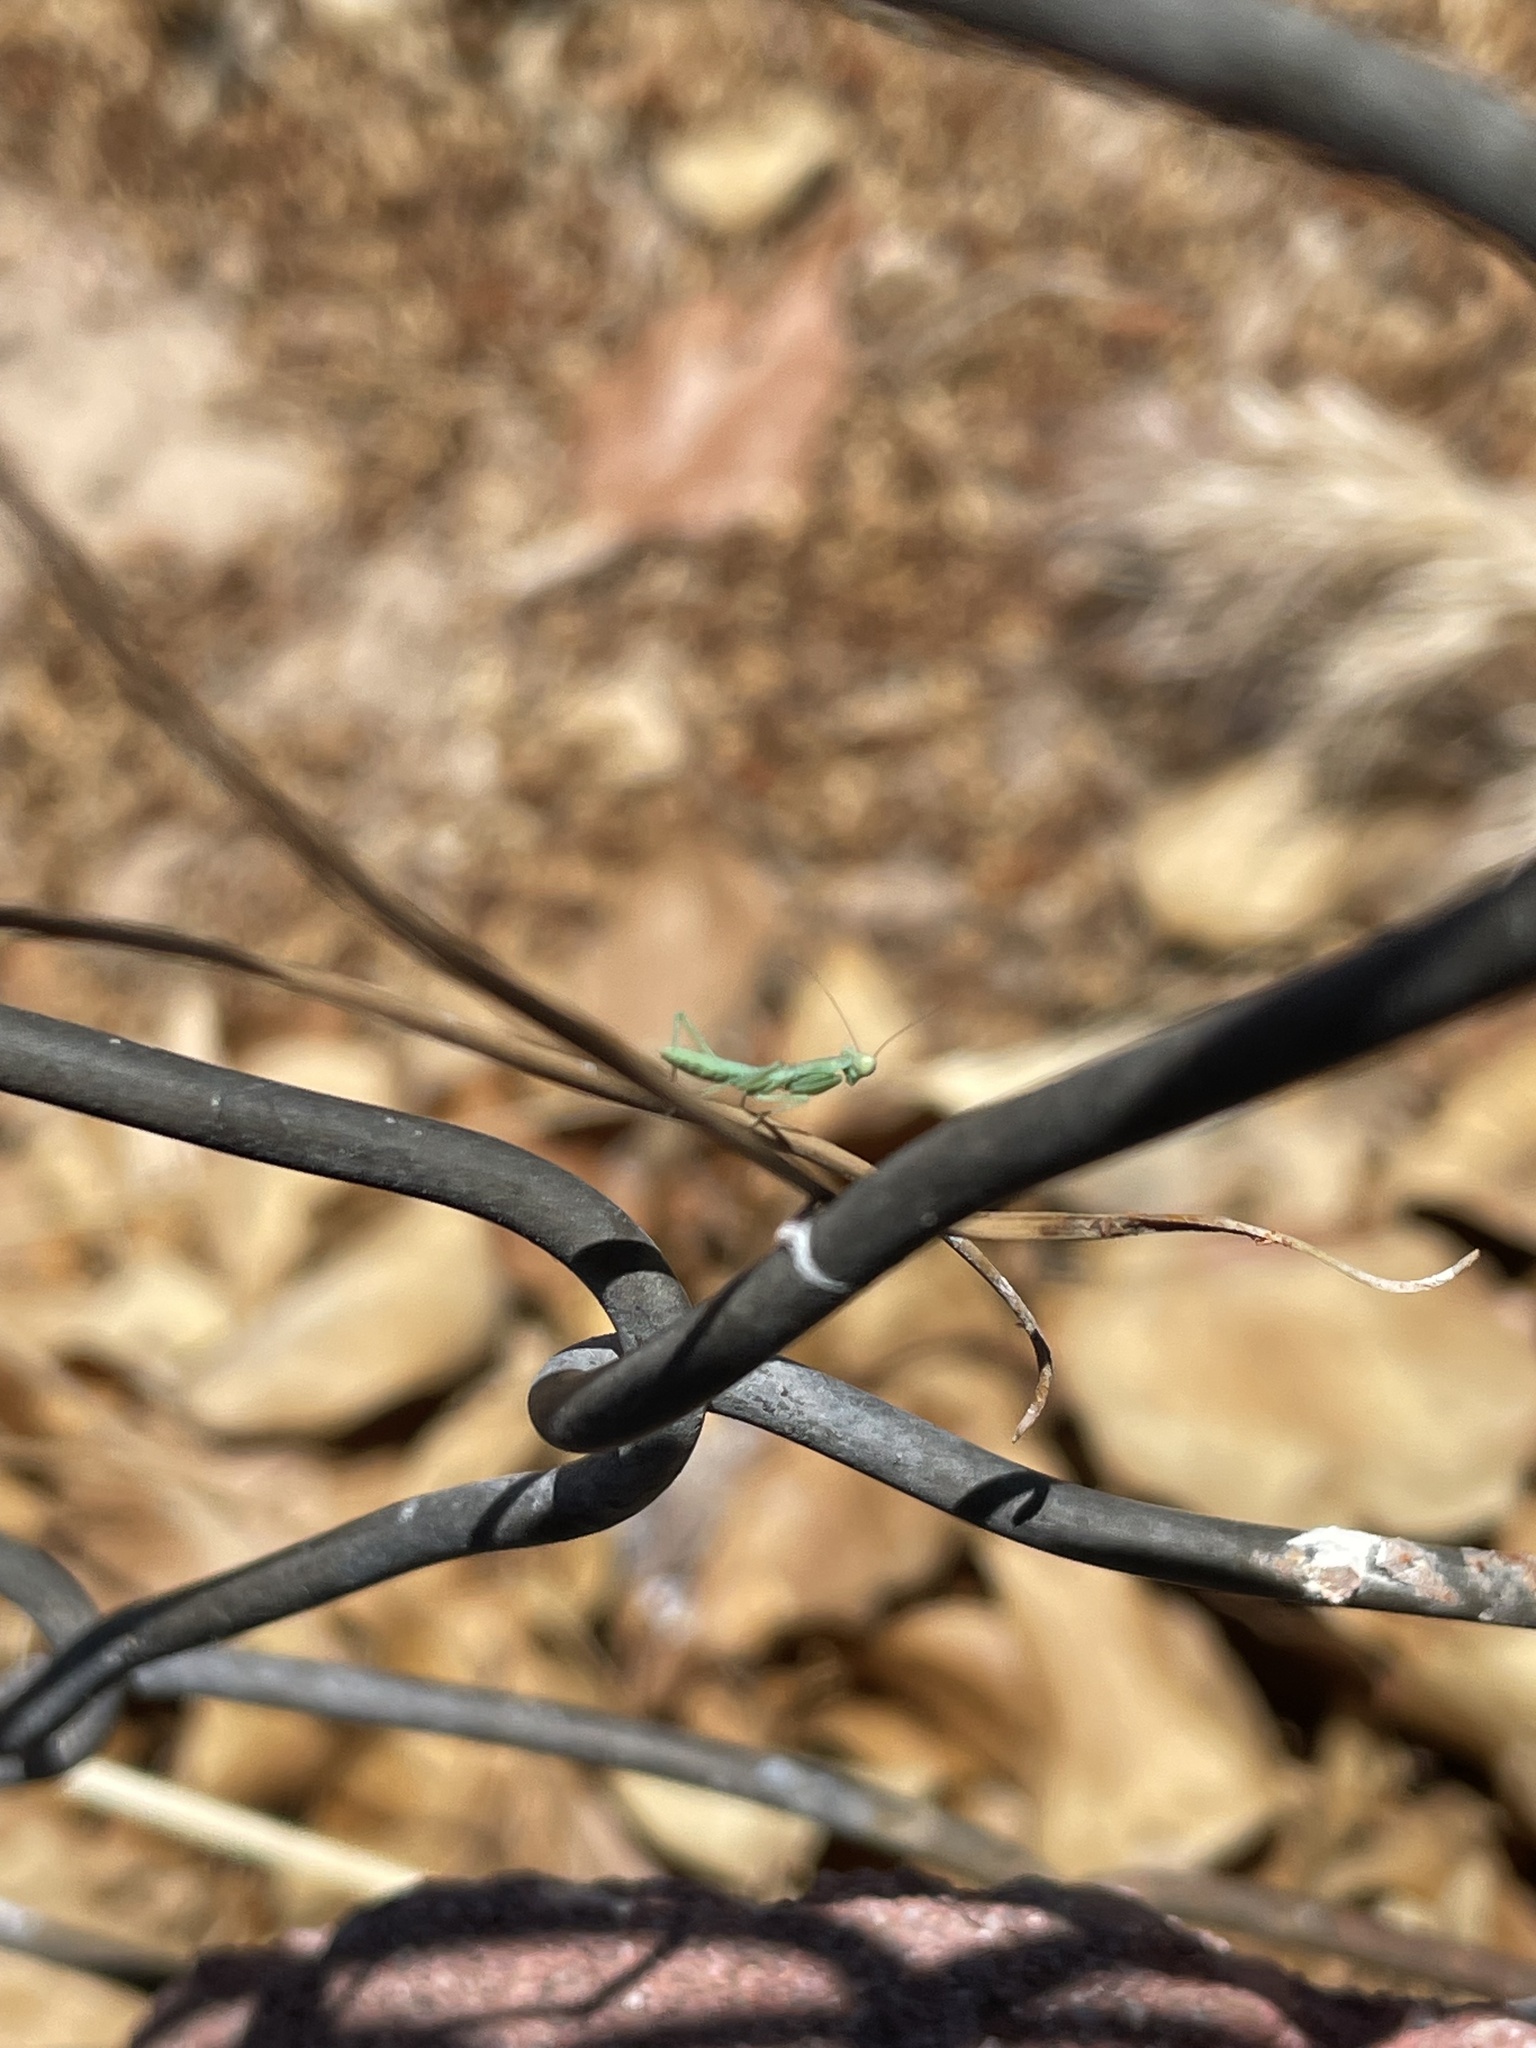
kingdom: Animalia
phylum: Arthropoda
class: Insecta
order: Mantodea
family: Eremiaphilidae
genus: Iris
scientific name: Iris oratoria
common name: Mediterranean mantis
